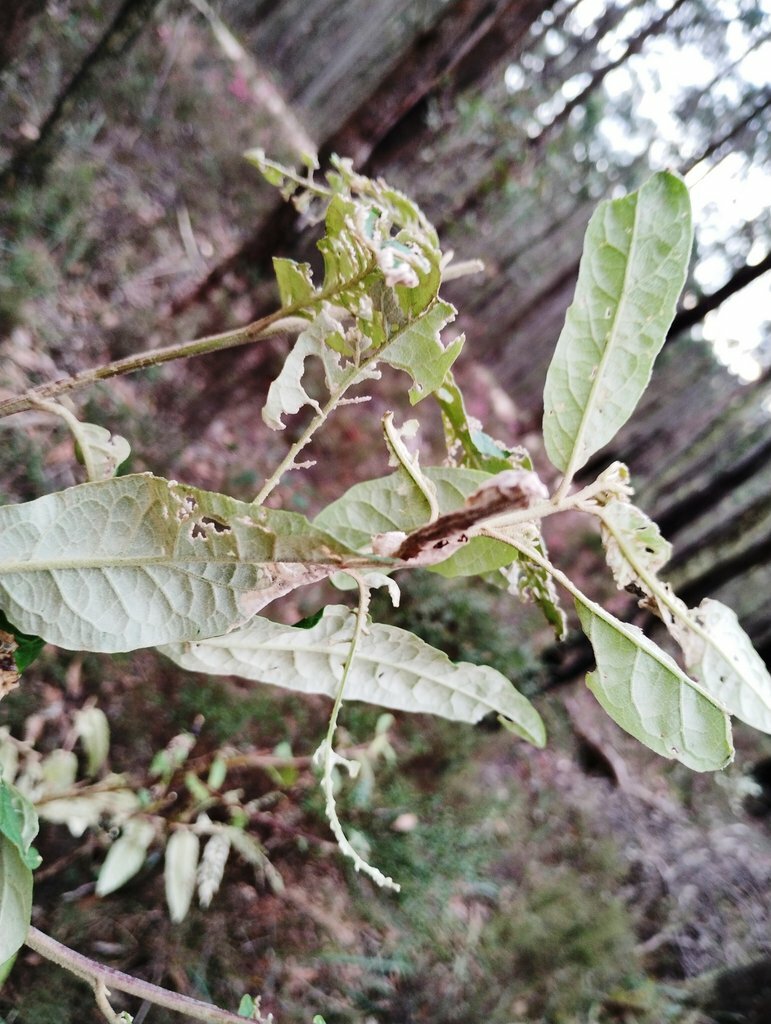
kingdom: Plantae
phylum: Tracheophyta
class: Magnoliopsida
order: Asterales
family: Asteraceae
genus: Olearia
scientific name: Olearia lirata
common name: Dusty daisybush
